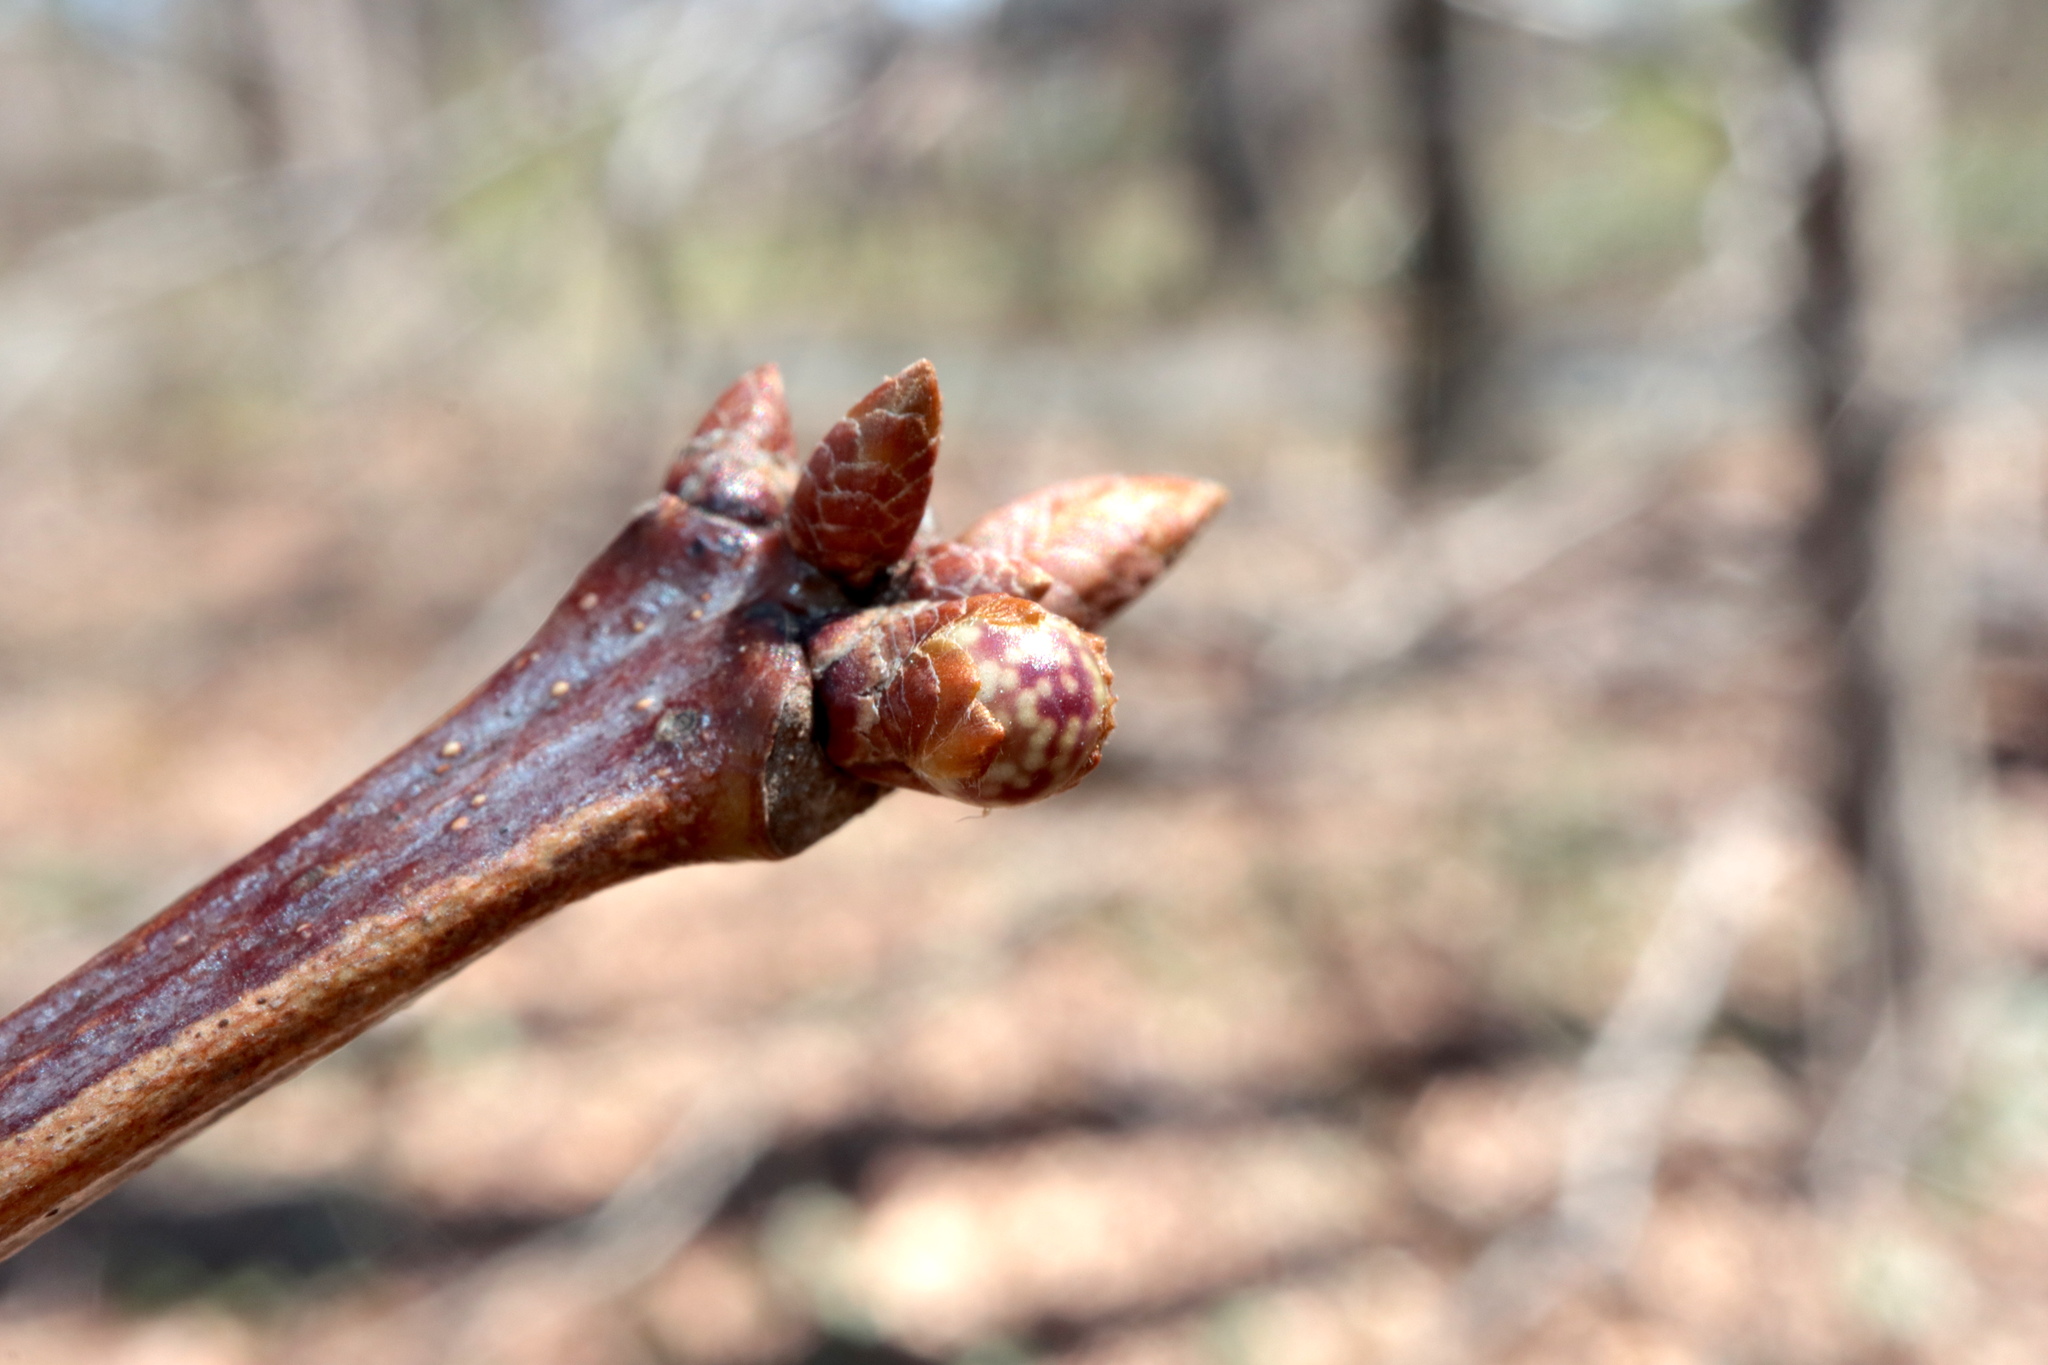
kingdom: Animalia
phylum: Arthropoda
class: Insecta
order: Hymenoptera
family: Cynipidae
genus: Andricus
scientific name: Andricus
